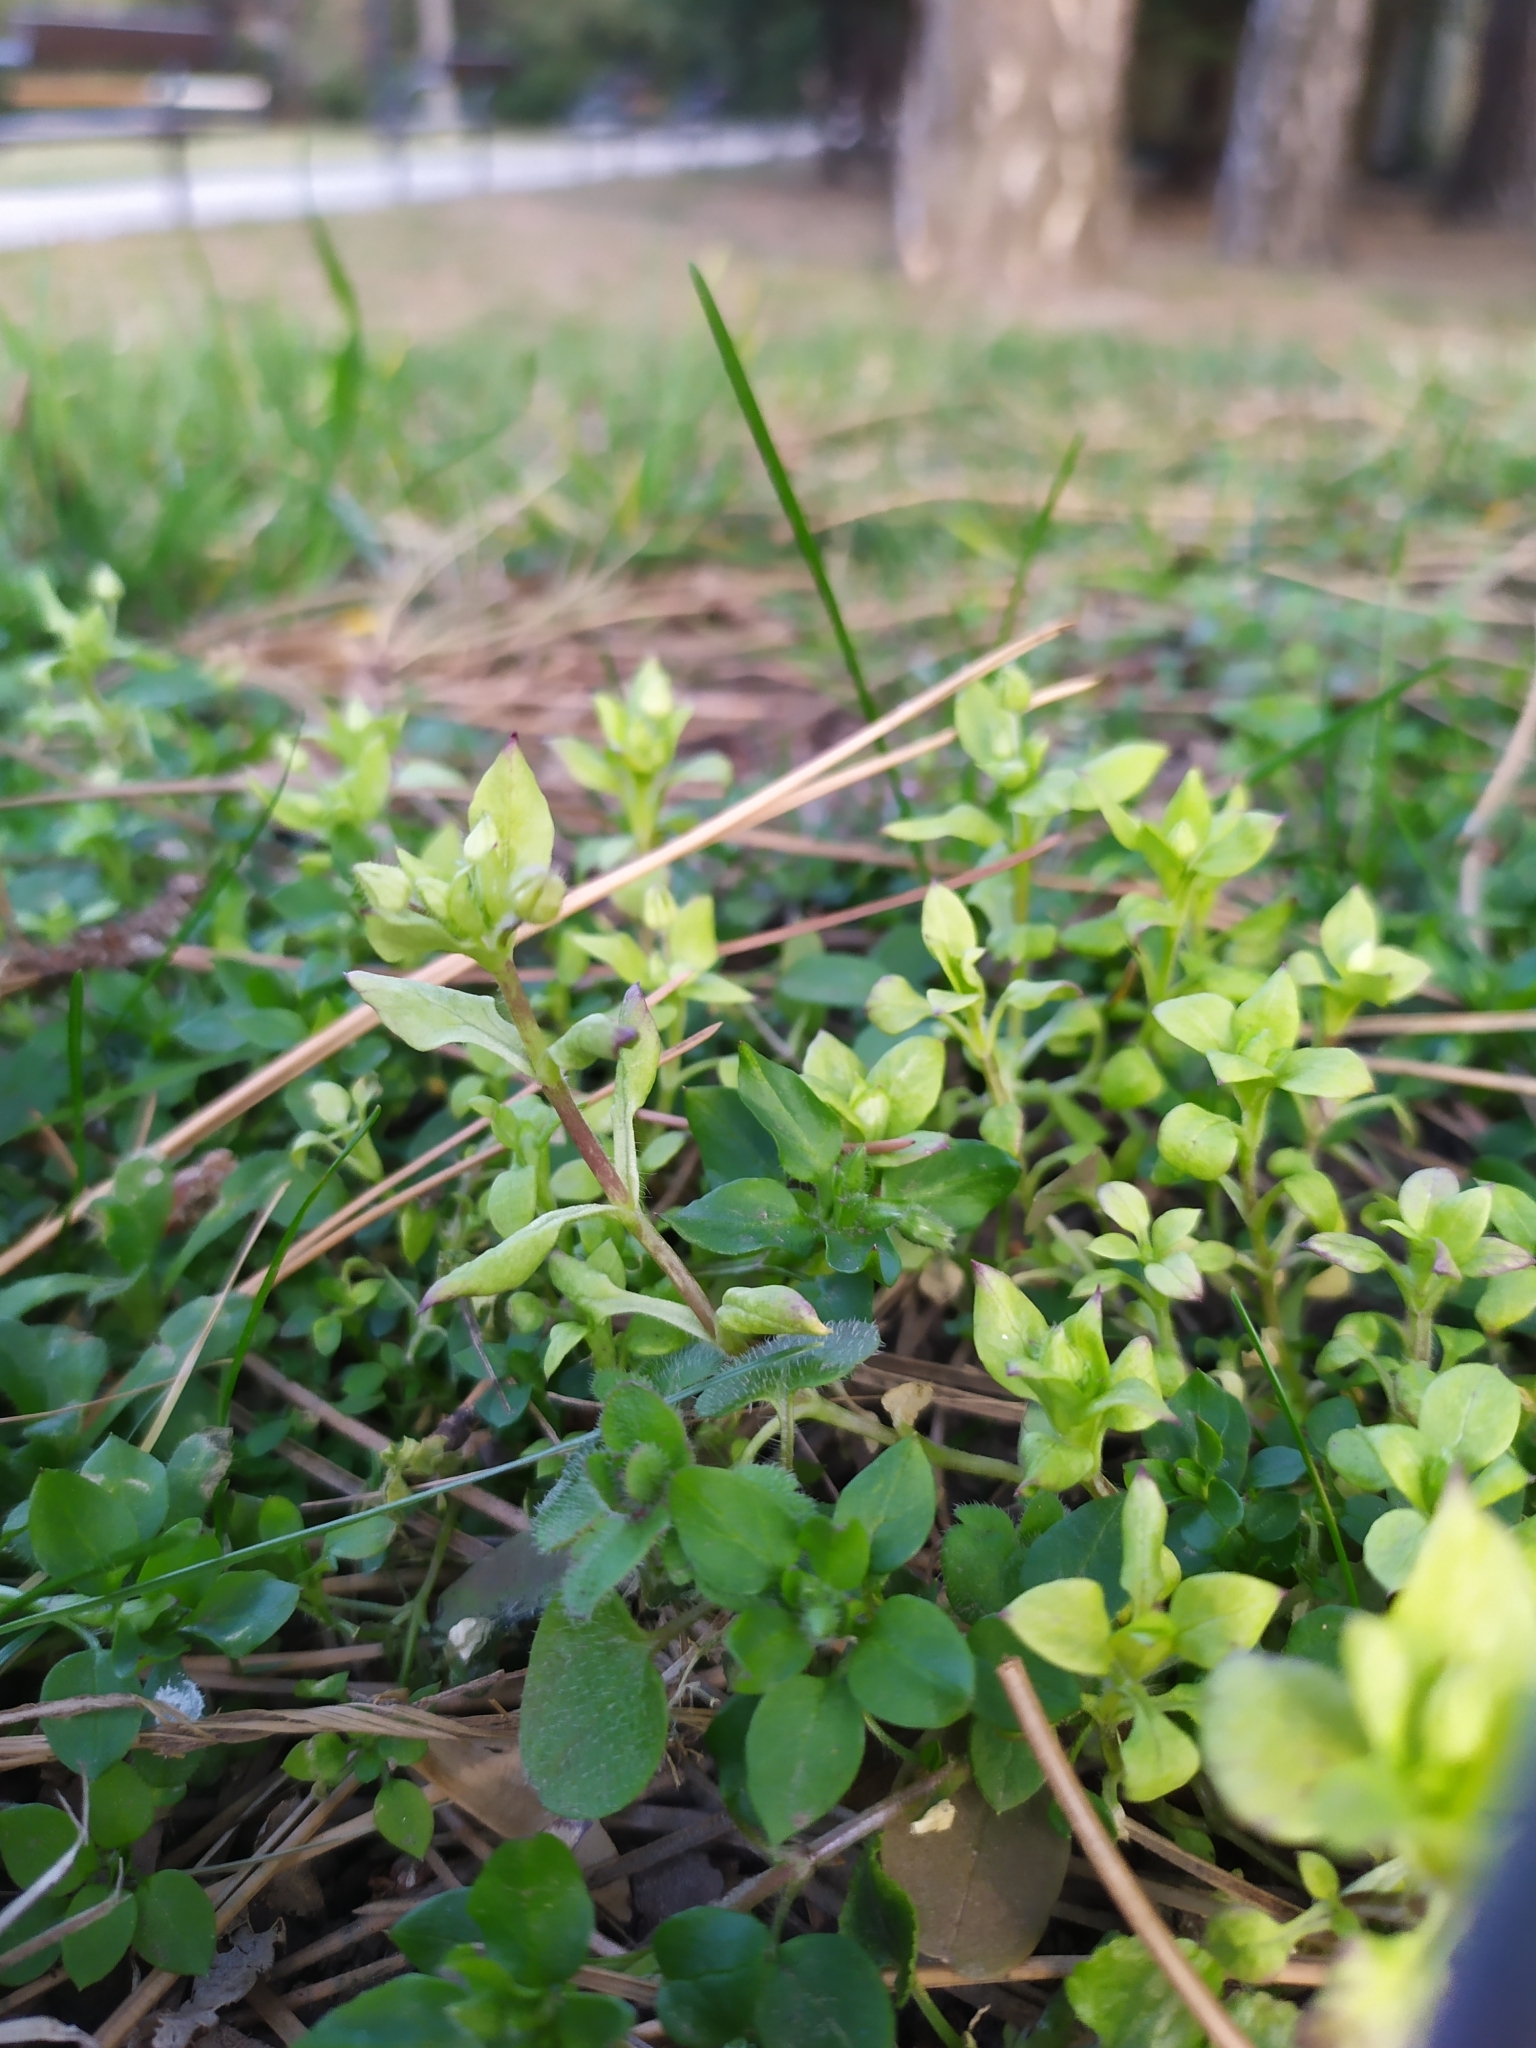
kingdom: Chromista
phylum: Oomycota
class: Peronosporea
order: Peronosporales
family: Peronosporaceae
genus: Peronospora
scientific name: Peronospora alsinearum
